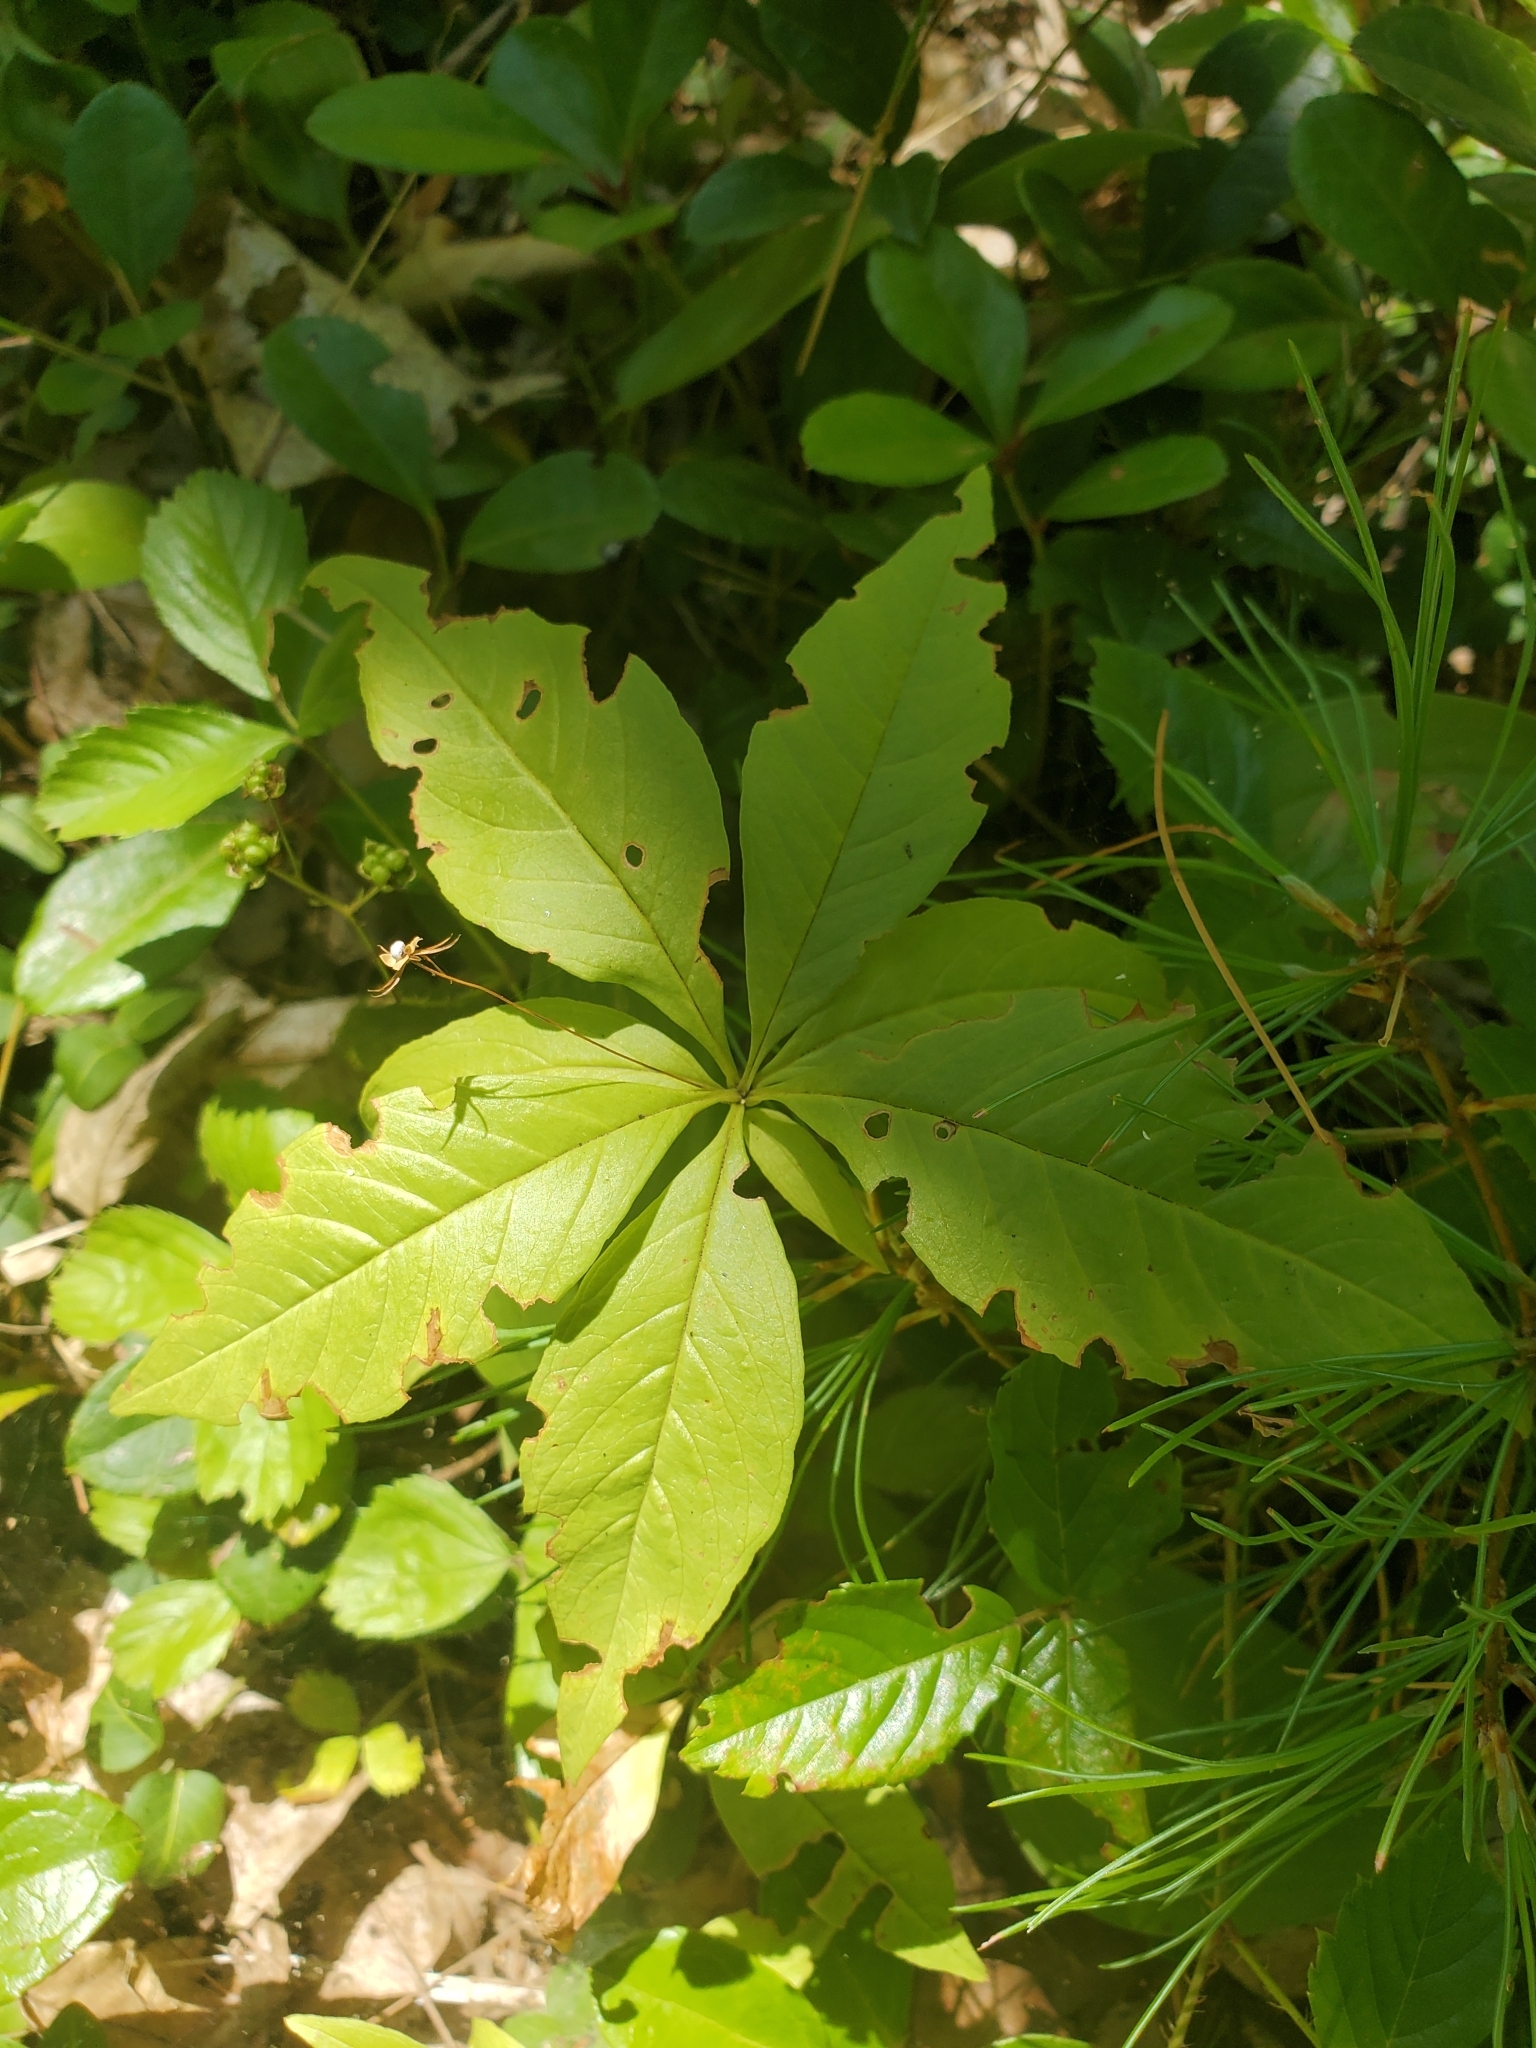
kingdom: Plantae
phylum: Tracheophyta
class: Magnoliopsida
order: Ericales
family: Primulaceae
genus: Lysimachia
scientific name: Lysimachia borealis
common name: American starflower
